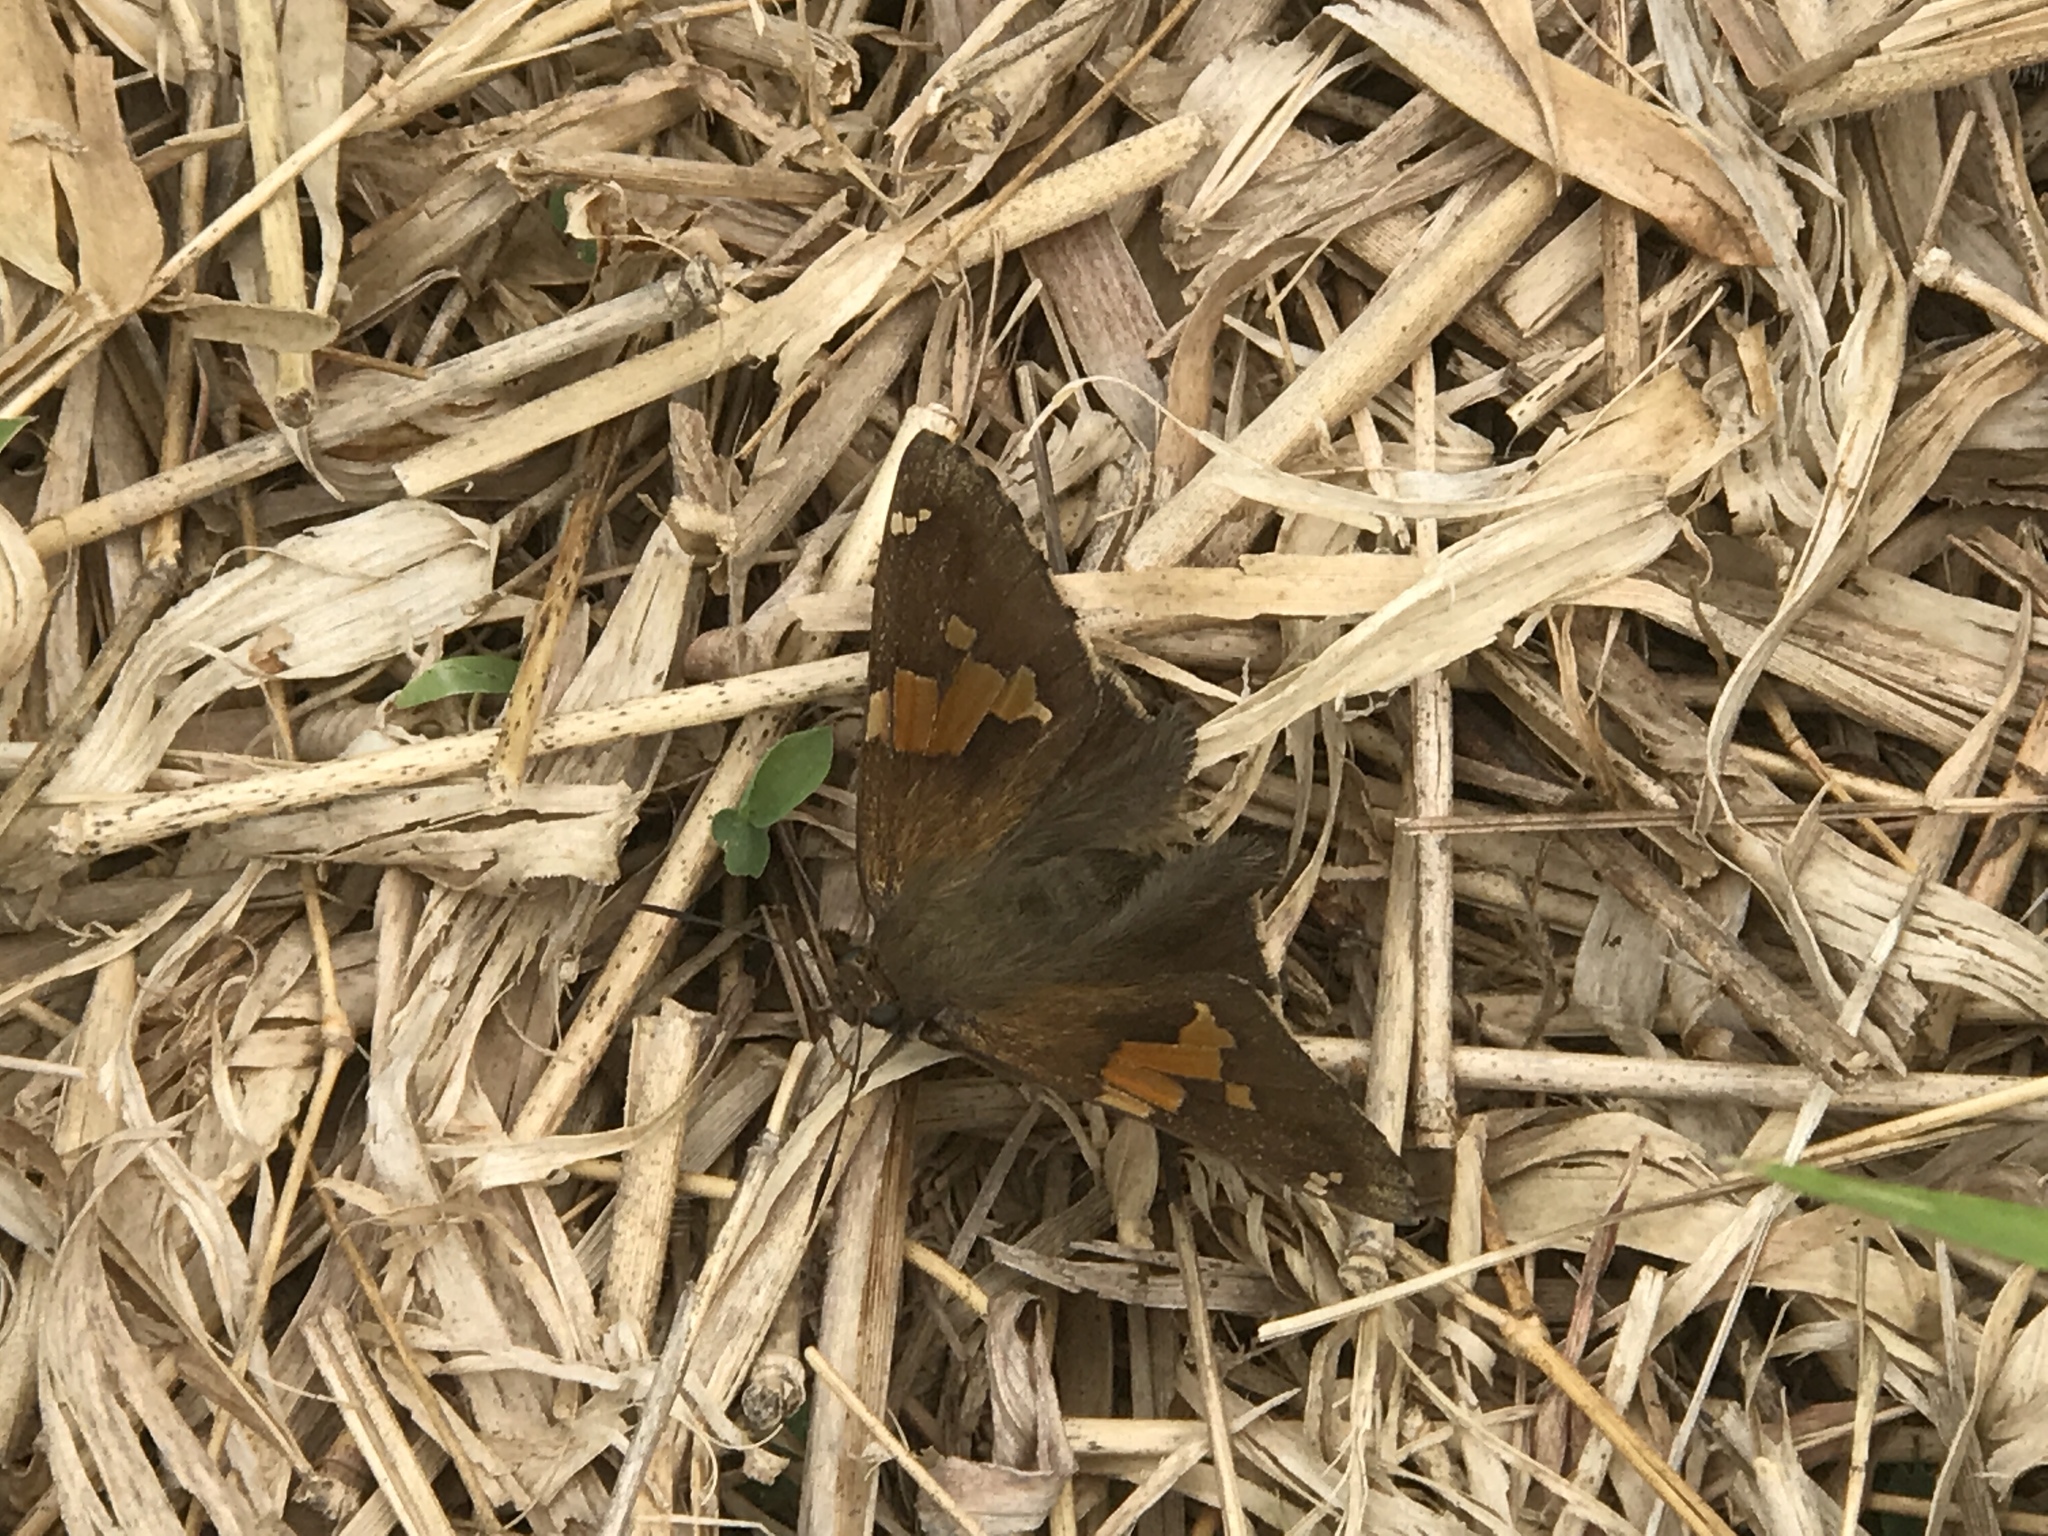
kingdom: Animalia
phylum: Arthropoda
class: Insecta
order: Lepidoptera
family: Hesperiidae
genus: Epargyreus
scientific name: Epargyreus clarus
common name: Silver-spotted skipper
